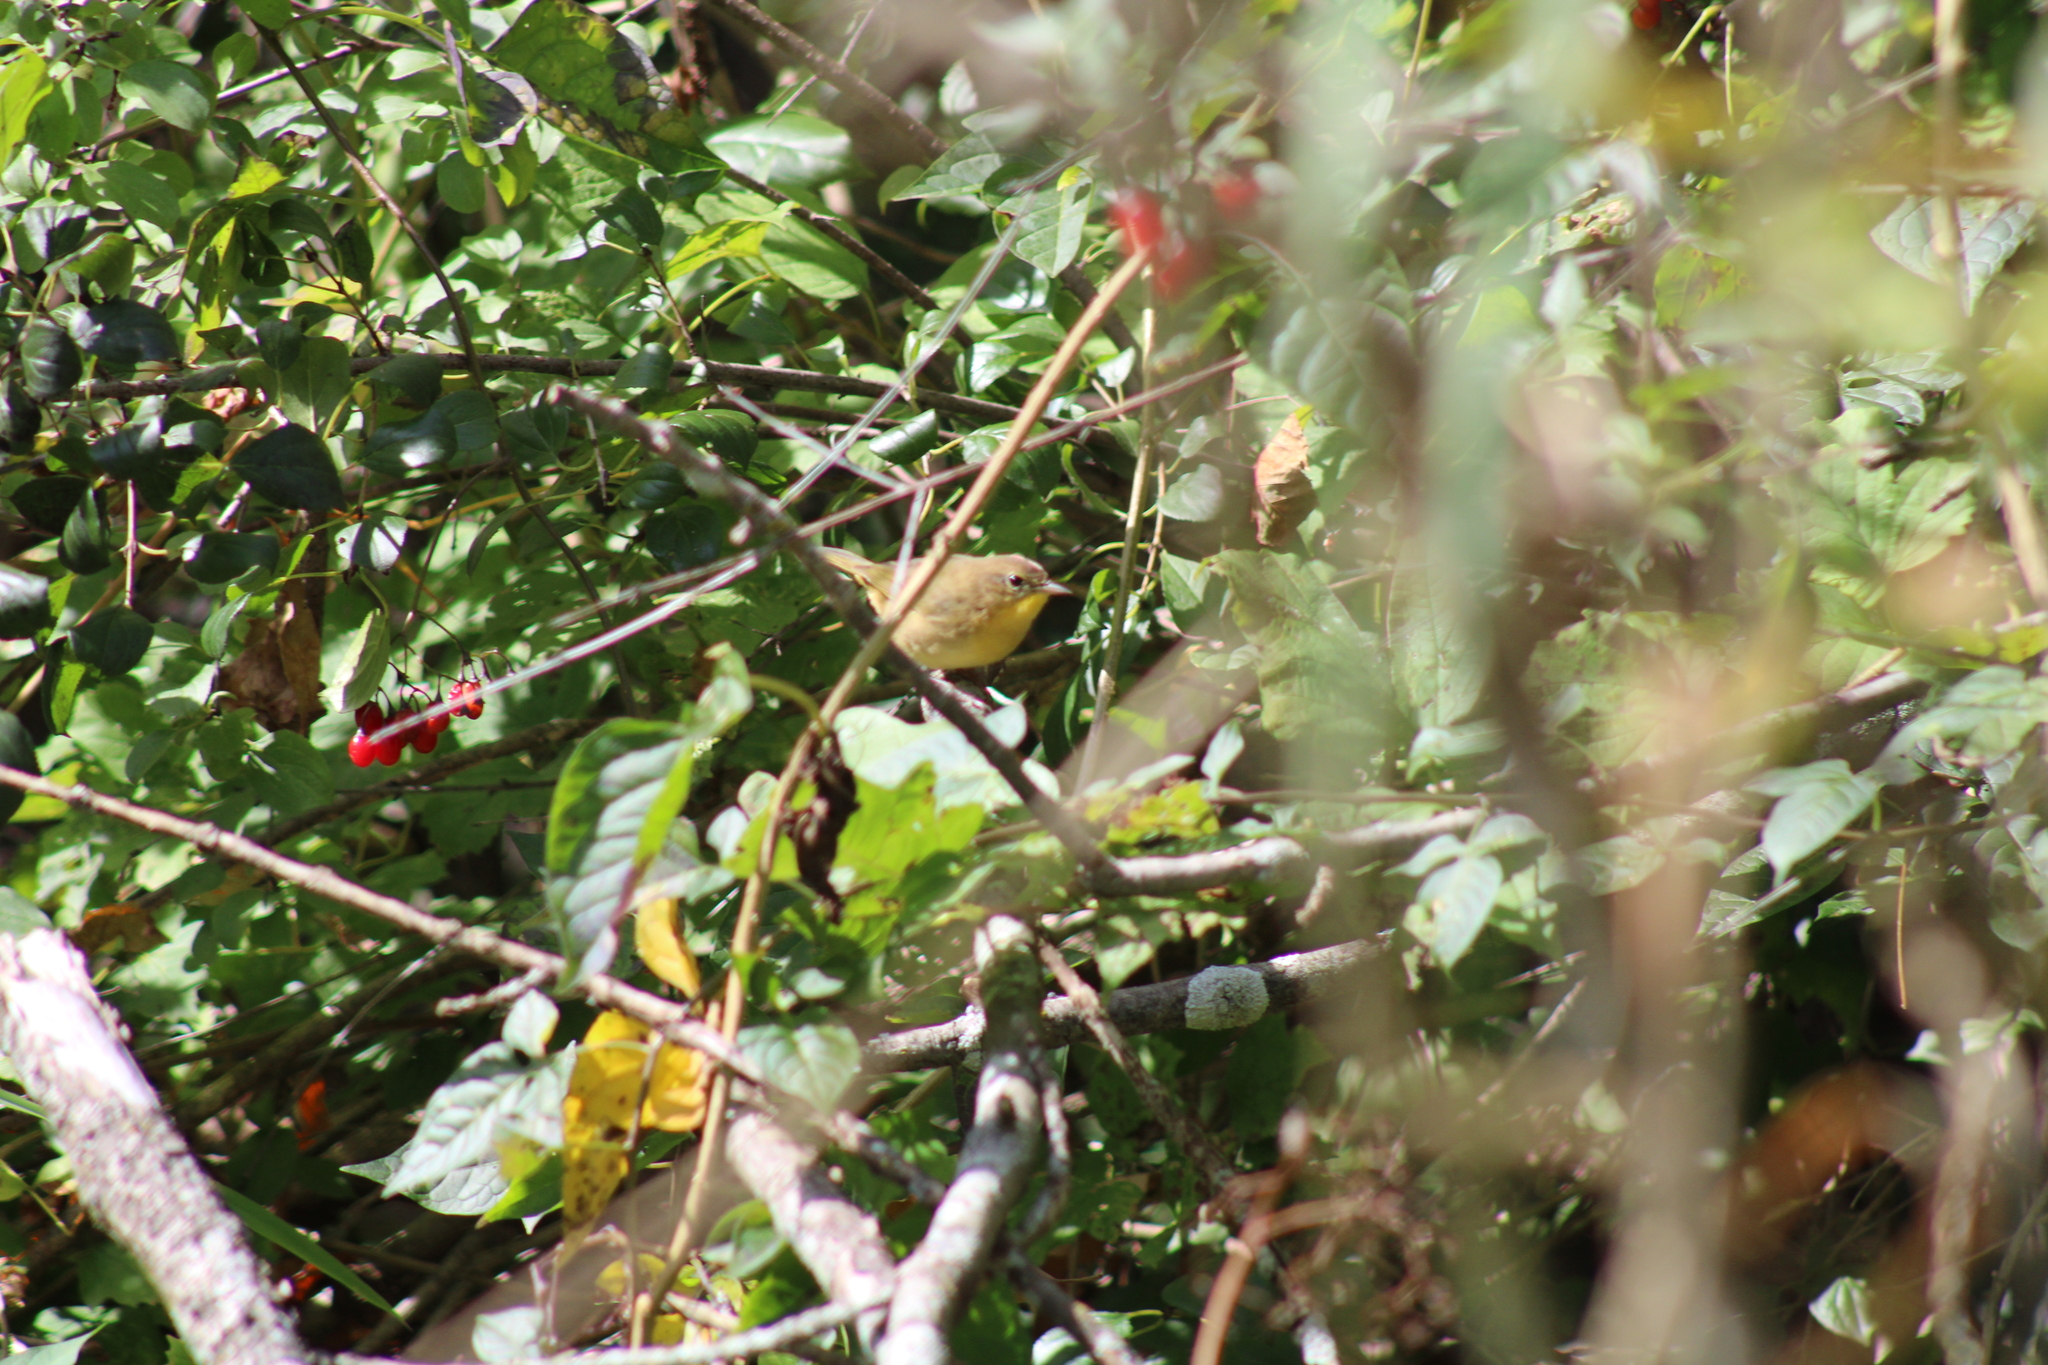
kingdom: Animalia
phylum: Chordata
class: Aves
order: Passeriformes
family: Parulidae
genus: Geothlypis
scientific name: Geothlypis trichas
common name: Common yellowthroat
